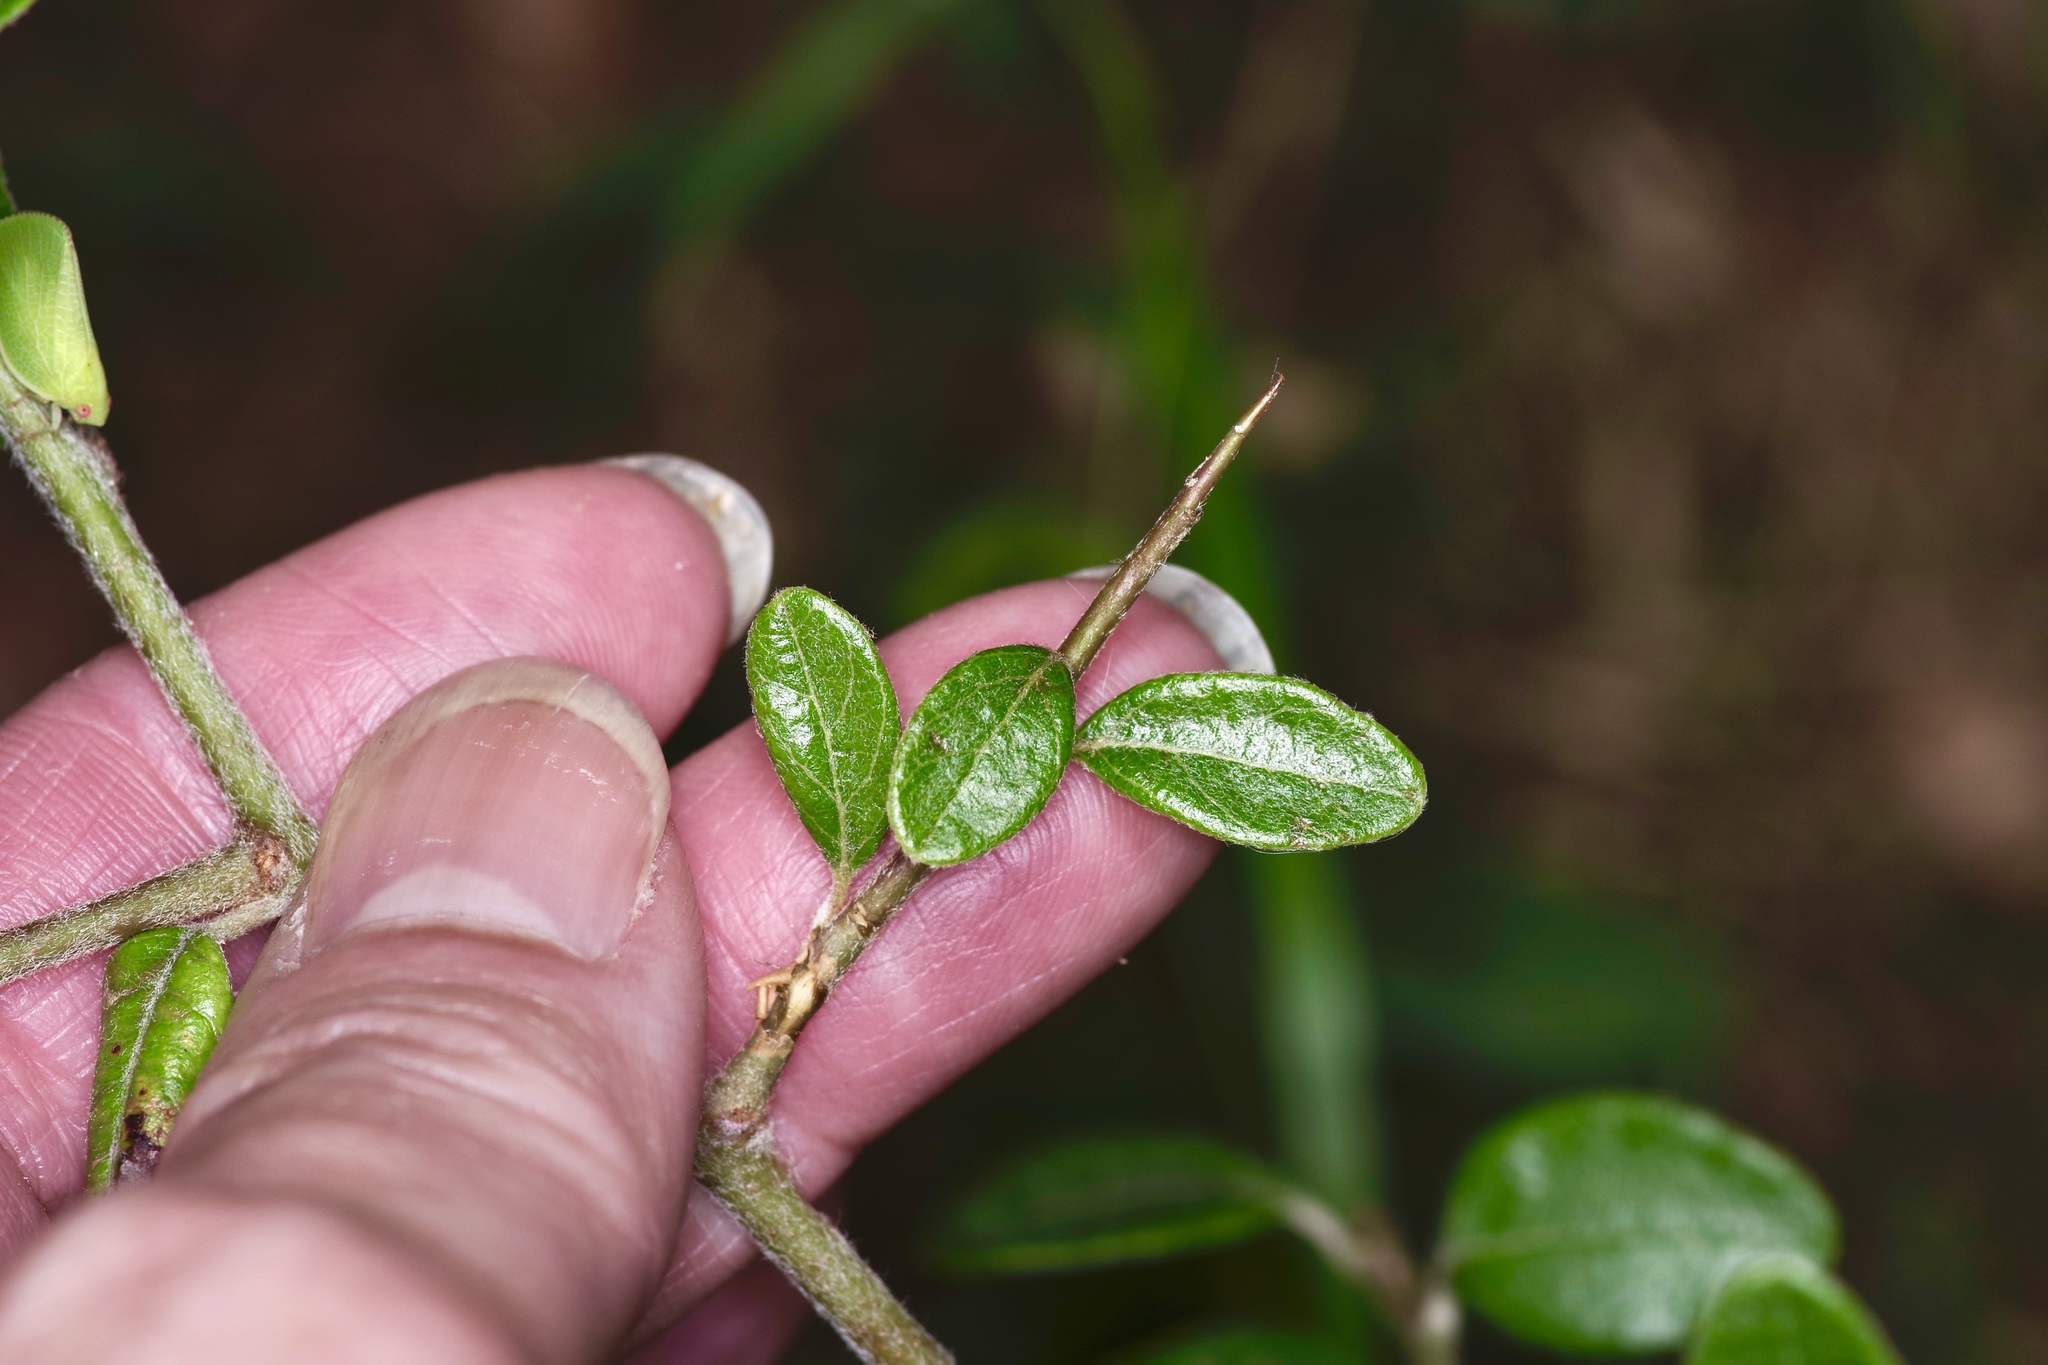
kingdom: Plantae
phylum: Tracheophyta
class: Magnoliopsida
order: Ericales
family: Sapotaceae
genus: Sideroxylon
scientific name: Sideroxylon lanuginosum
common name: Chittamwood
